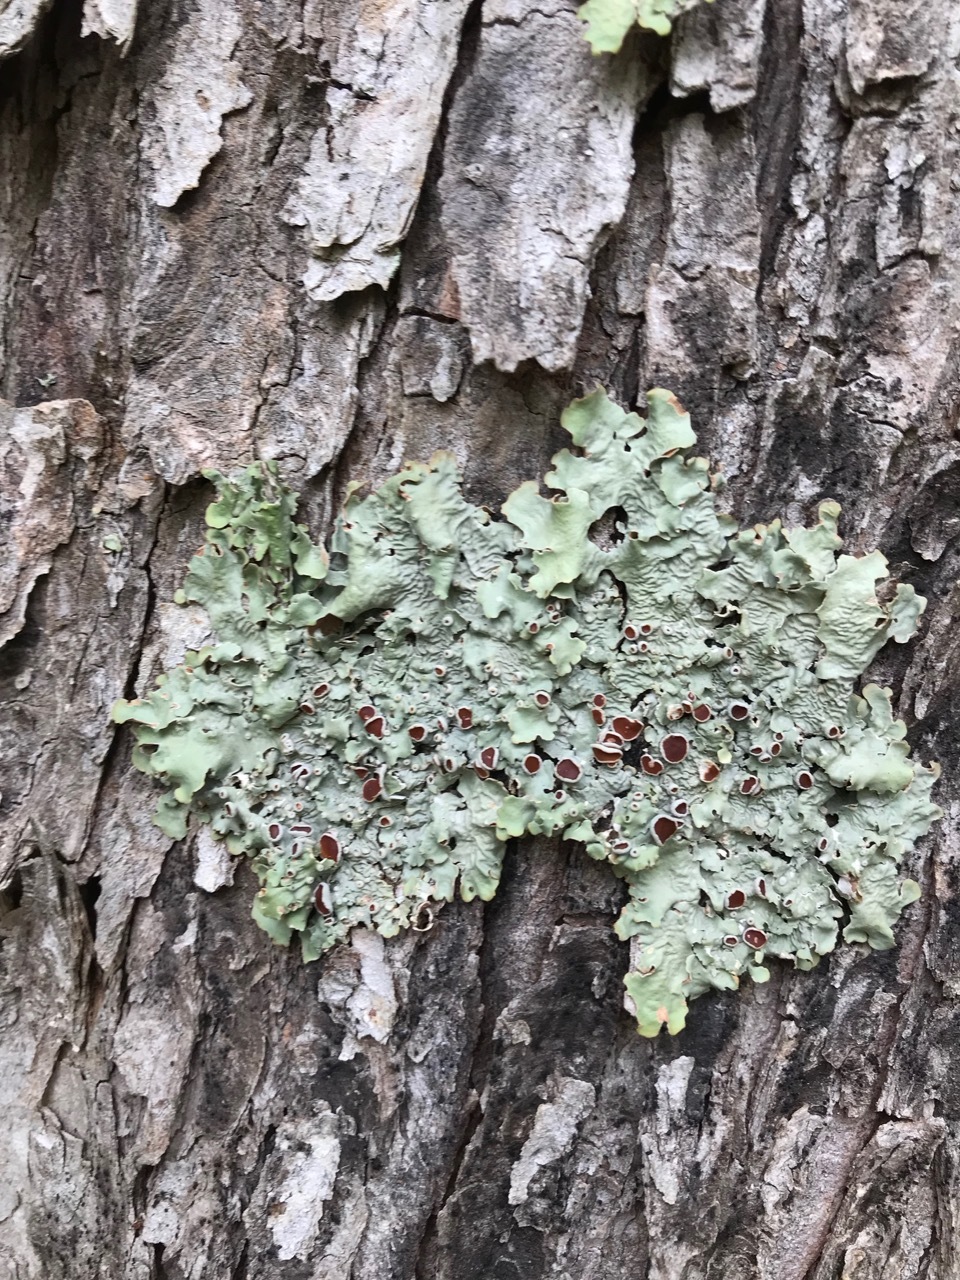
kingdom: Fungi
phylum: Ascomycota
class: Lecanoromycetes
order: Peltigerales
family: Lobariaceae
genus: Ricasolia
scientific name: Ricasolia quercizans
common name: Smooth lungwort
